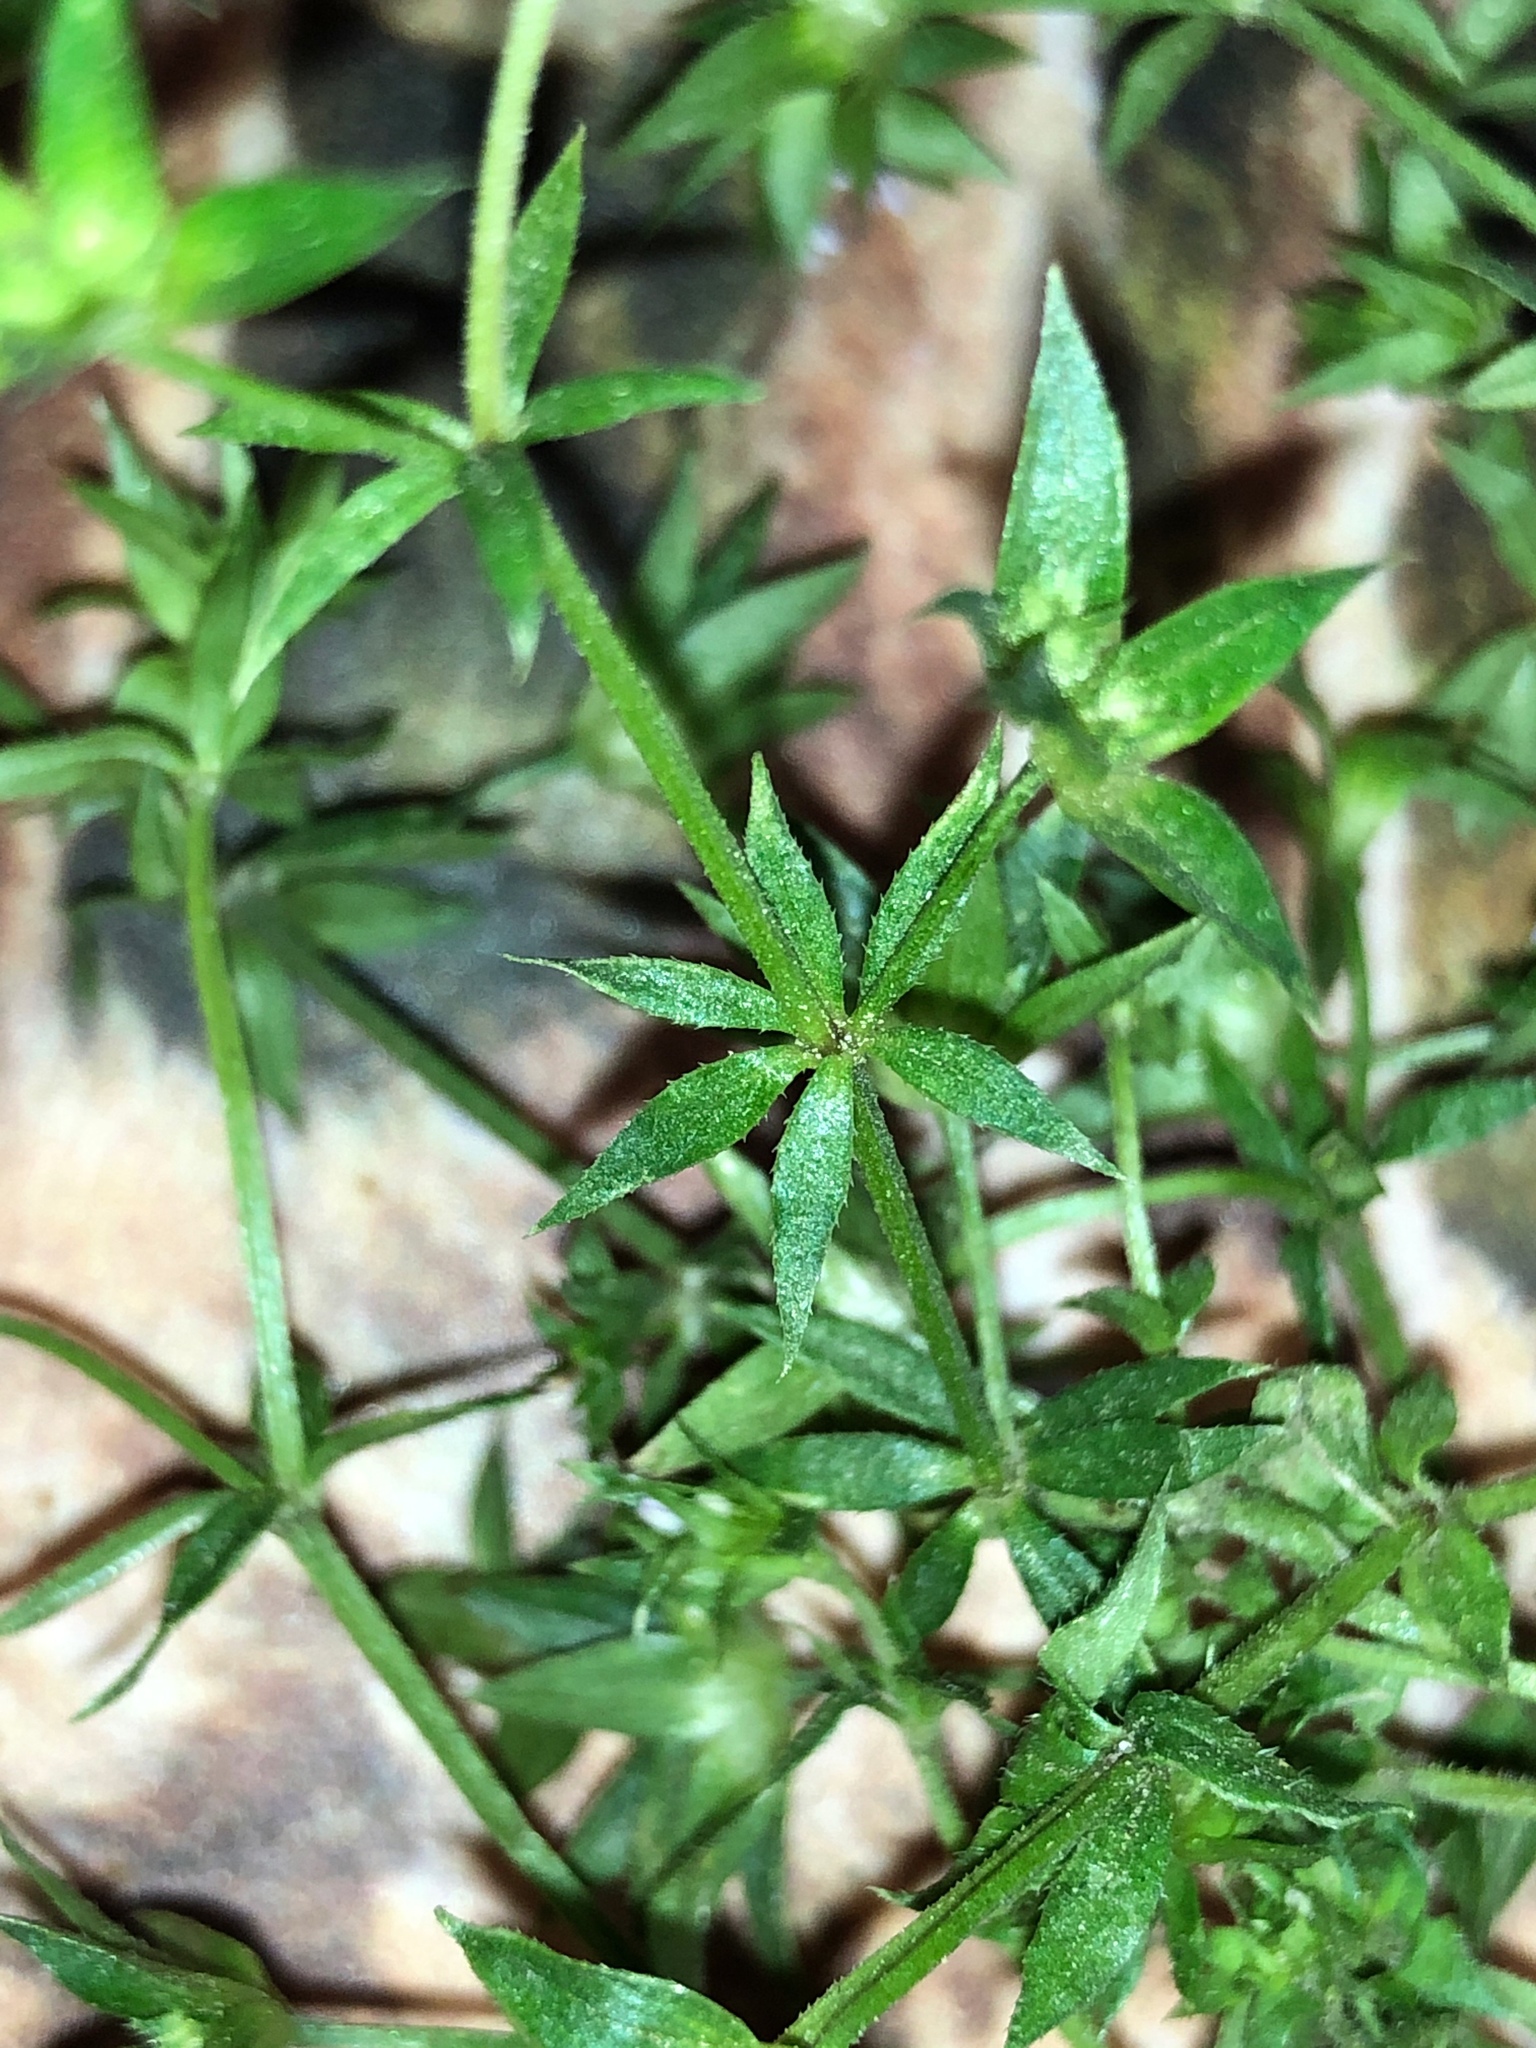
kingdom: Plantae
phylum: Tracheophyta
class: Magnoliopsida
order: Gentianales
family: Rubiaceae
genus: Sherardia
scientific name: Sherardia arvensis
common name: Field madder
